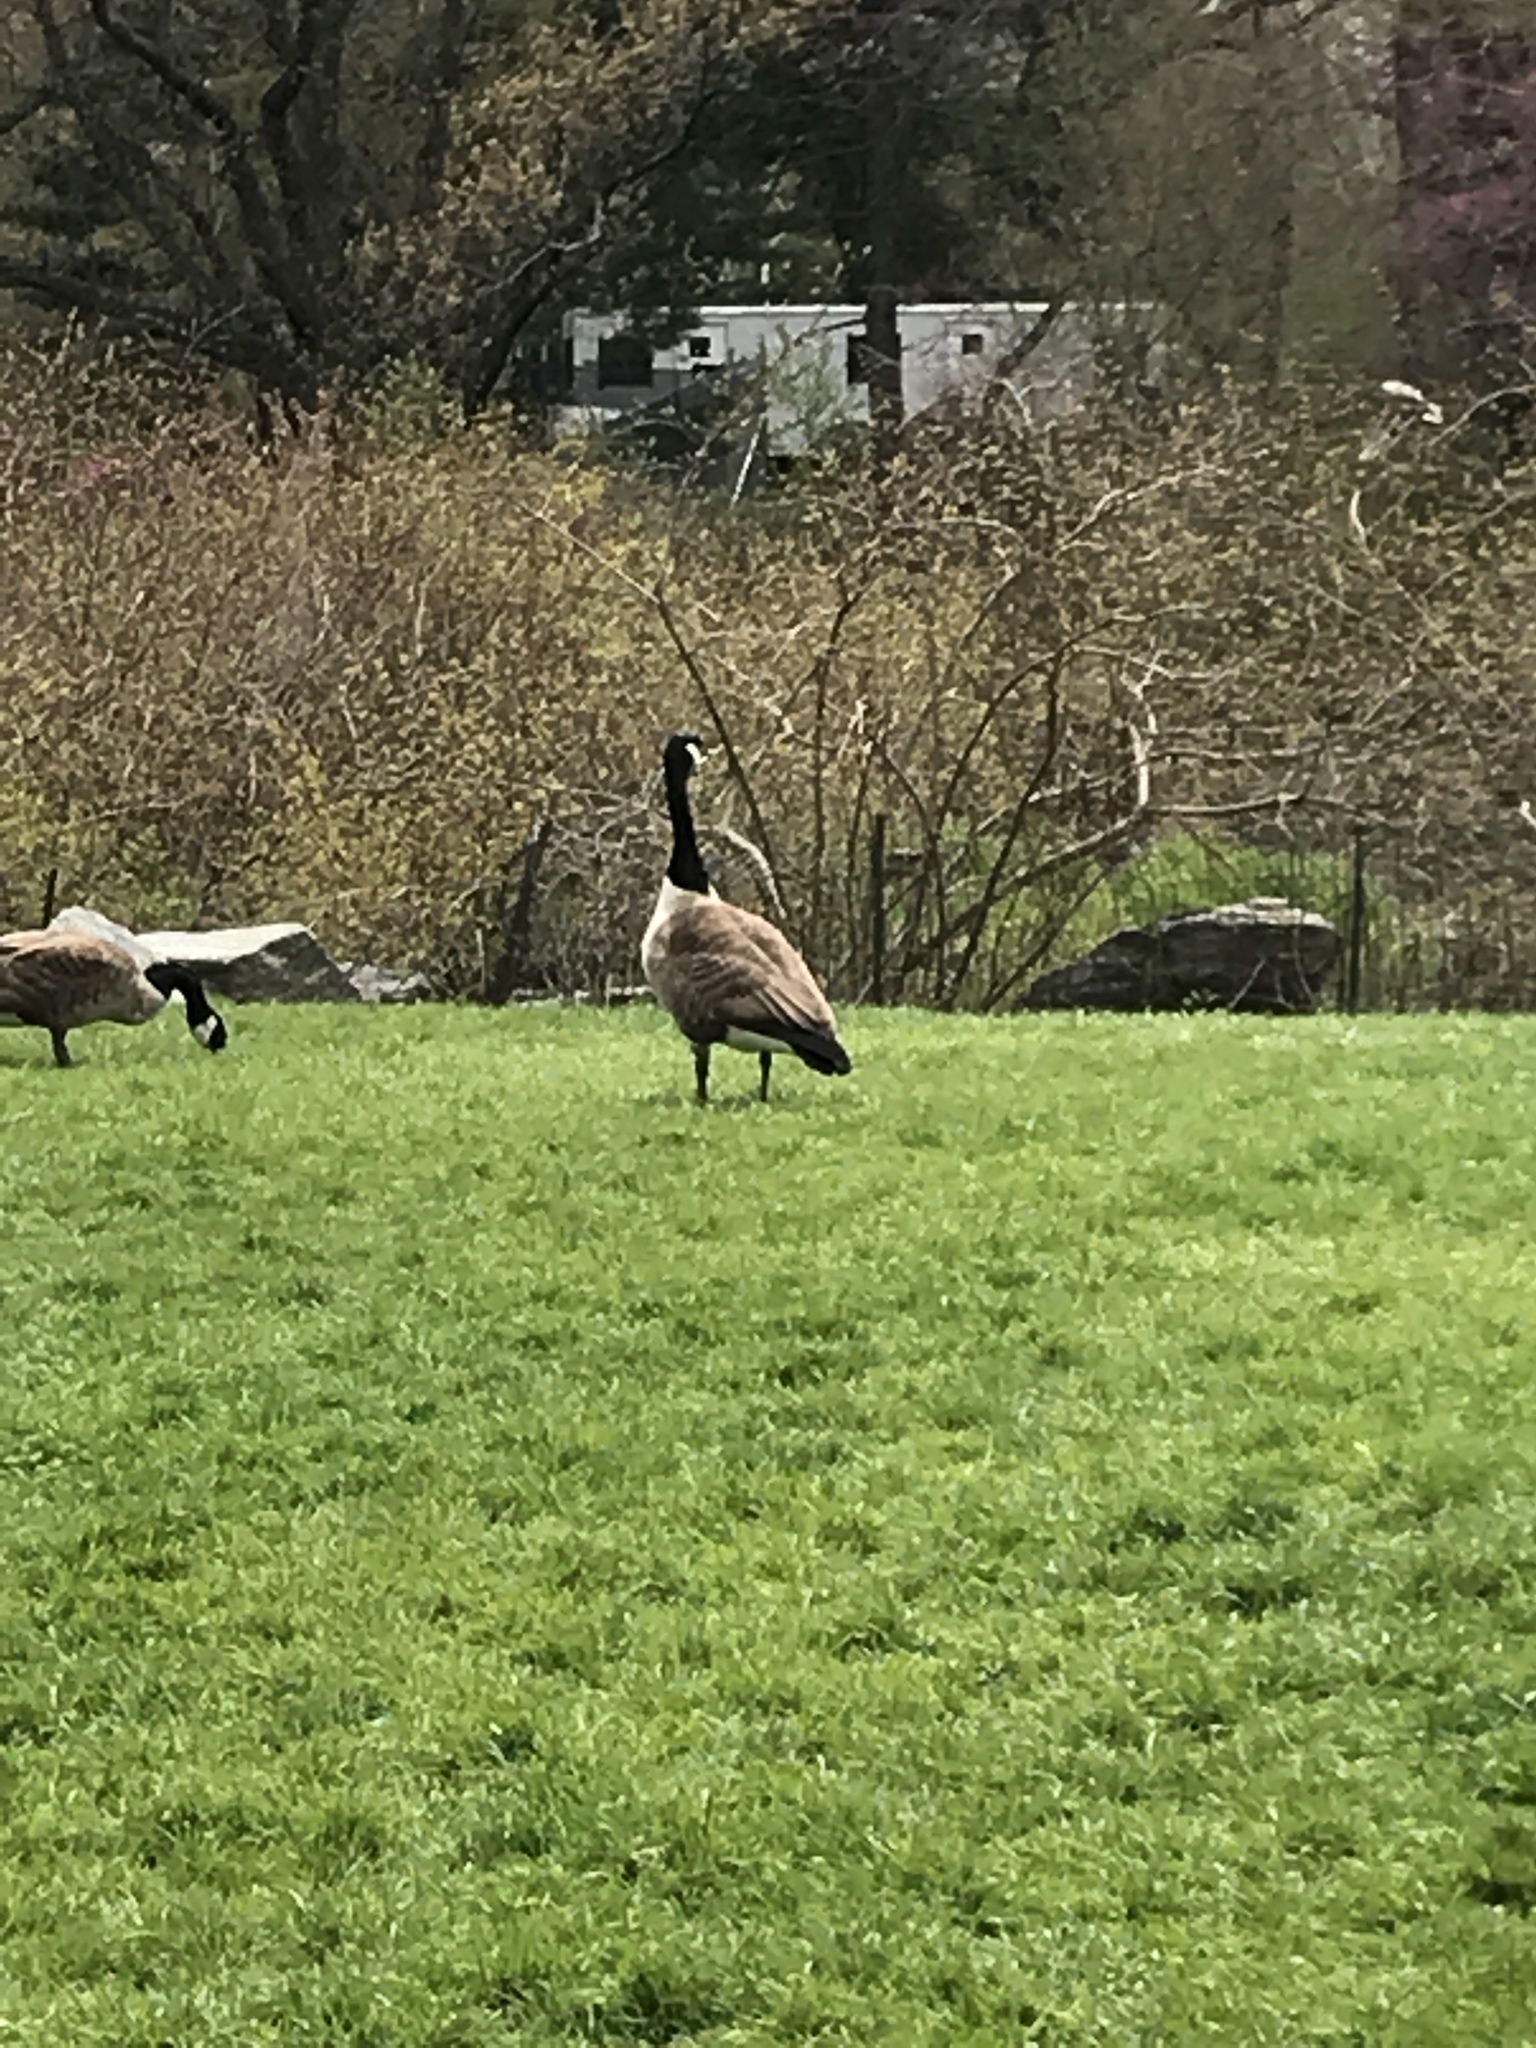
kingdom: Animalia
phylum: Chordata
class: Aves
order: Anseriformes
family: Anatidae
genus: Branta
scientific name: Branta canadensis
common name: Canada goose
